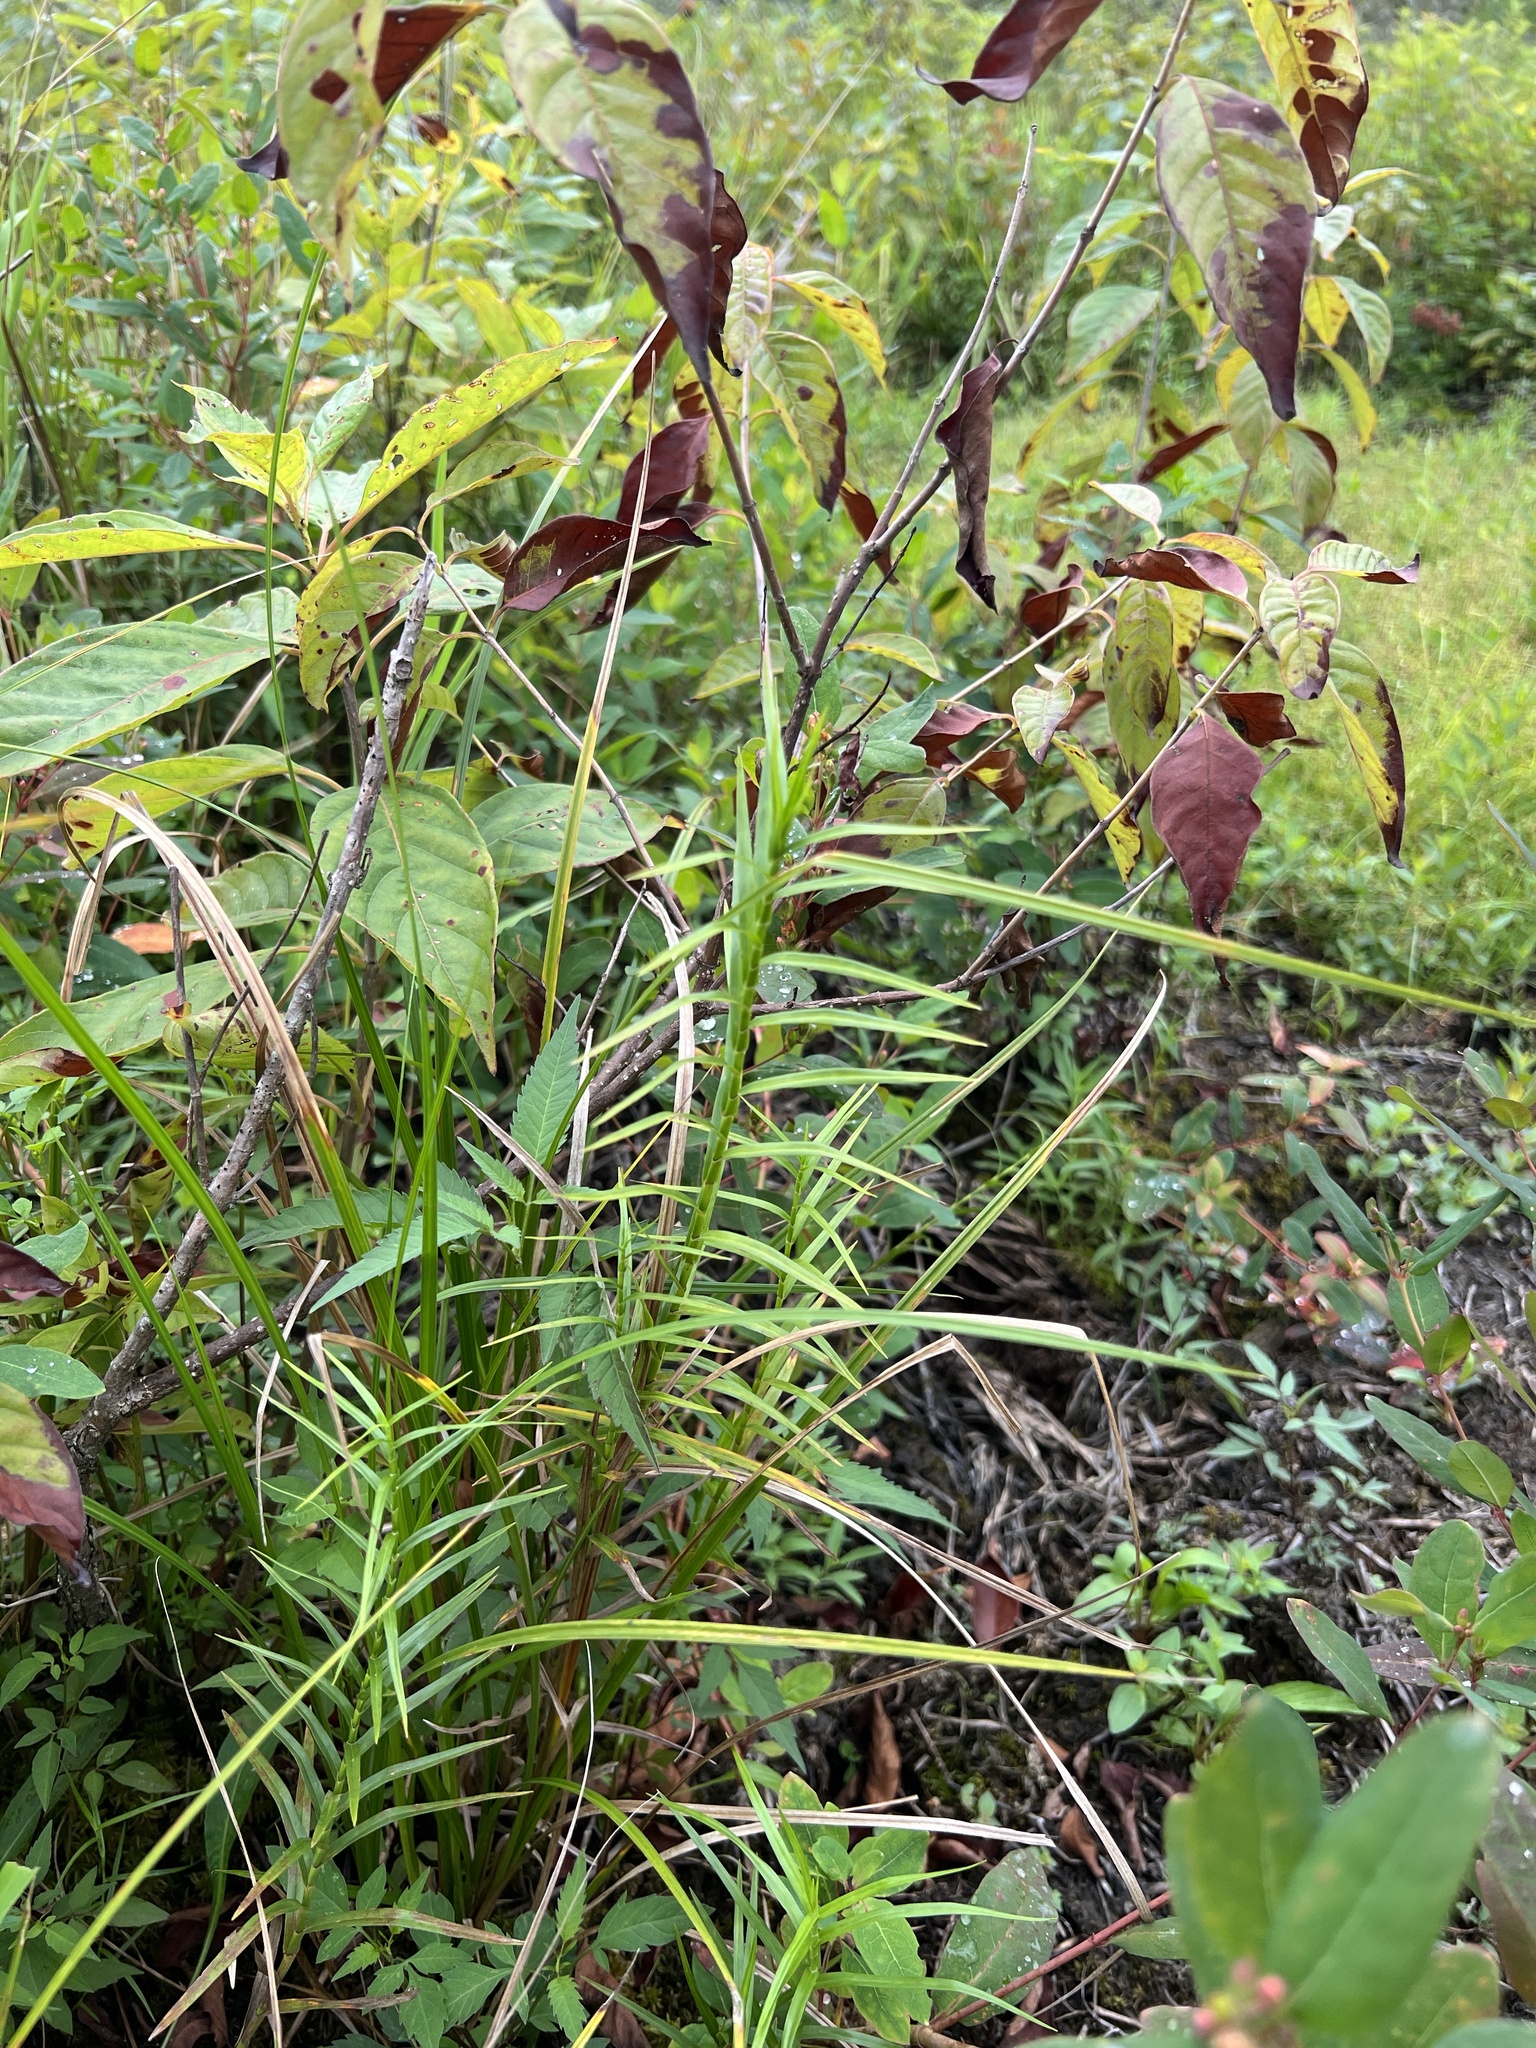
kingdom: Plantae
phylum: Tracheophyta
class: Liliopsida
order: Poales
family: Cyperaceae
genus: Dulichium
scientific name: Dulichium arundinaceum
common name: Three-way sedge
